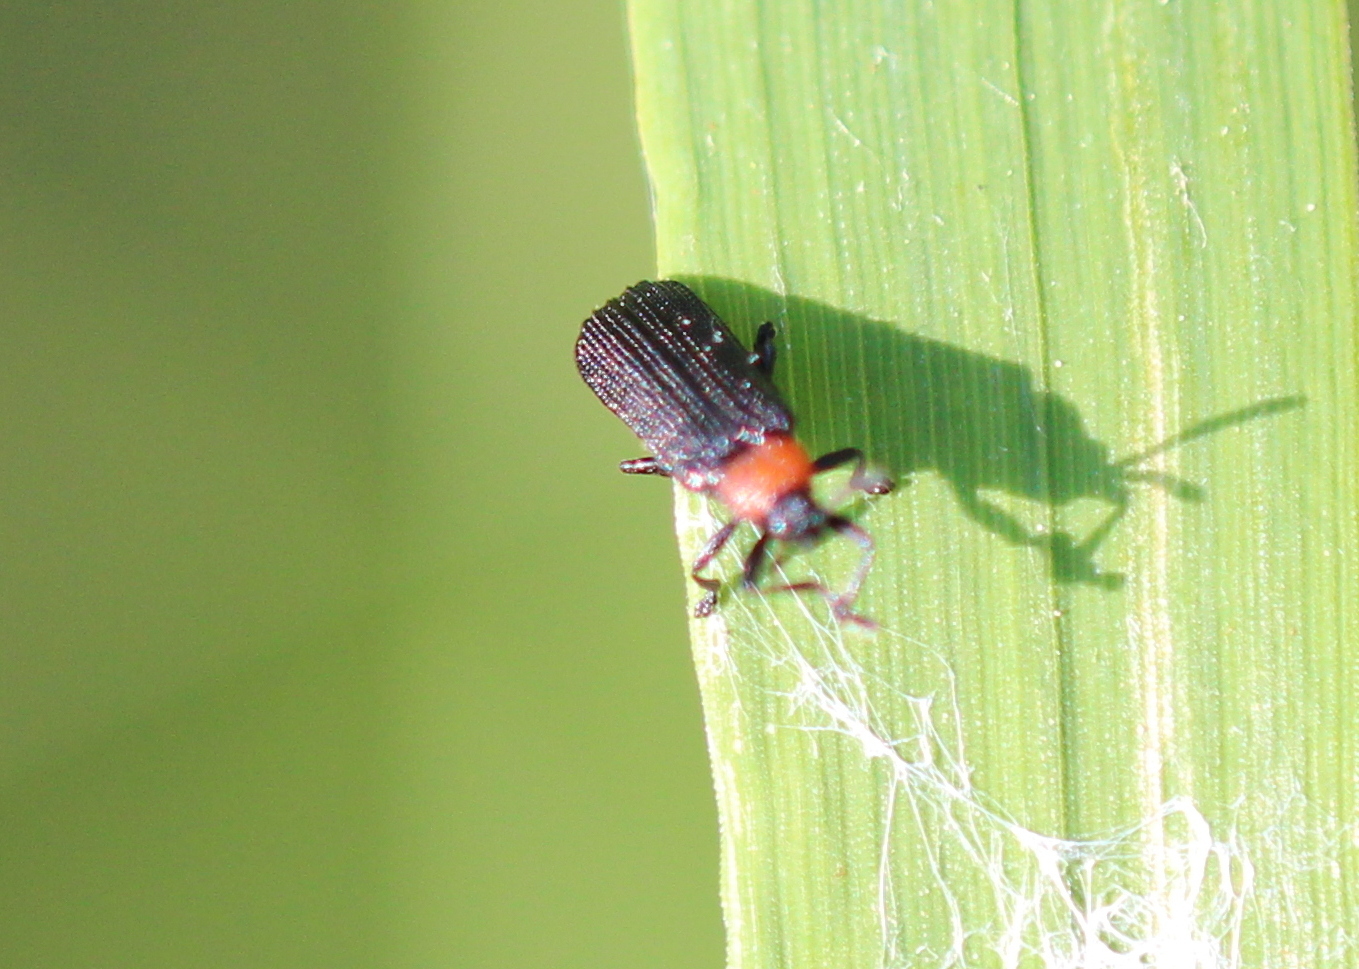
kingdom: Animalia
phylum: Arthropoda
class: Insecta
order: Coleoptera
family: Chrysomelidae
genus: Chalepus
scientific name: Chalepus walshii
